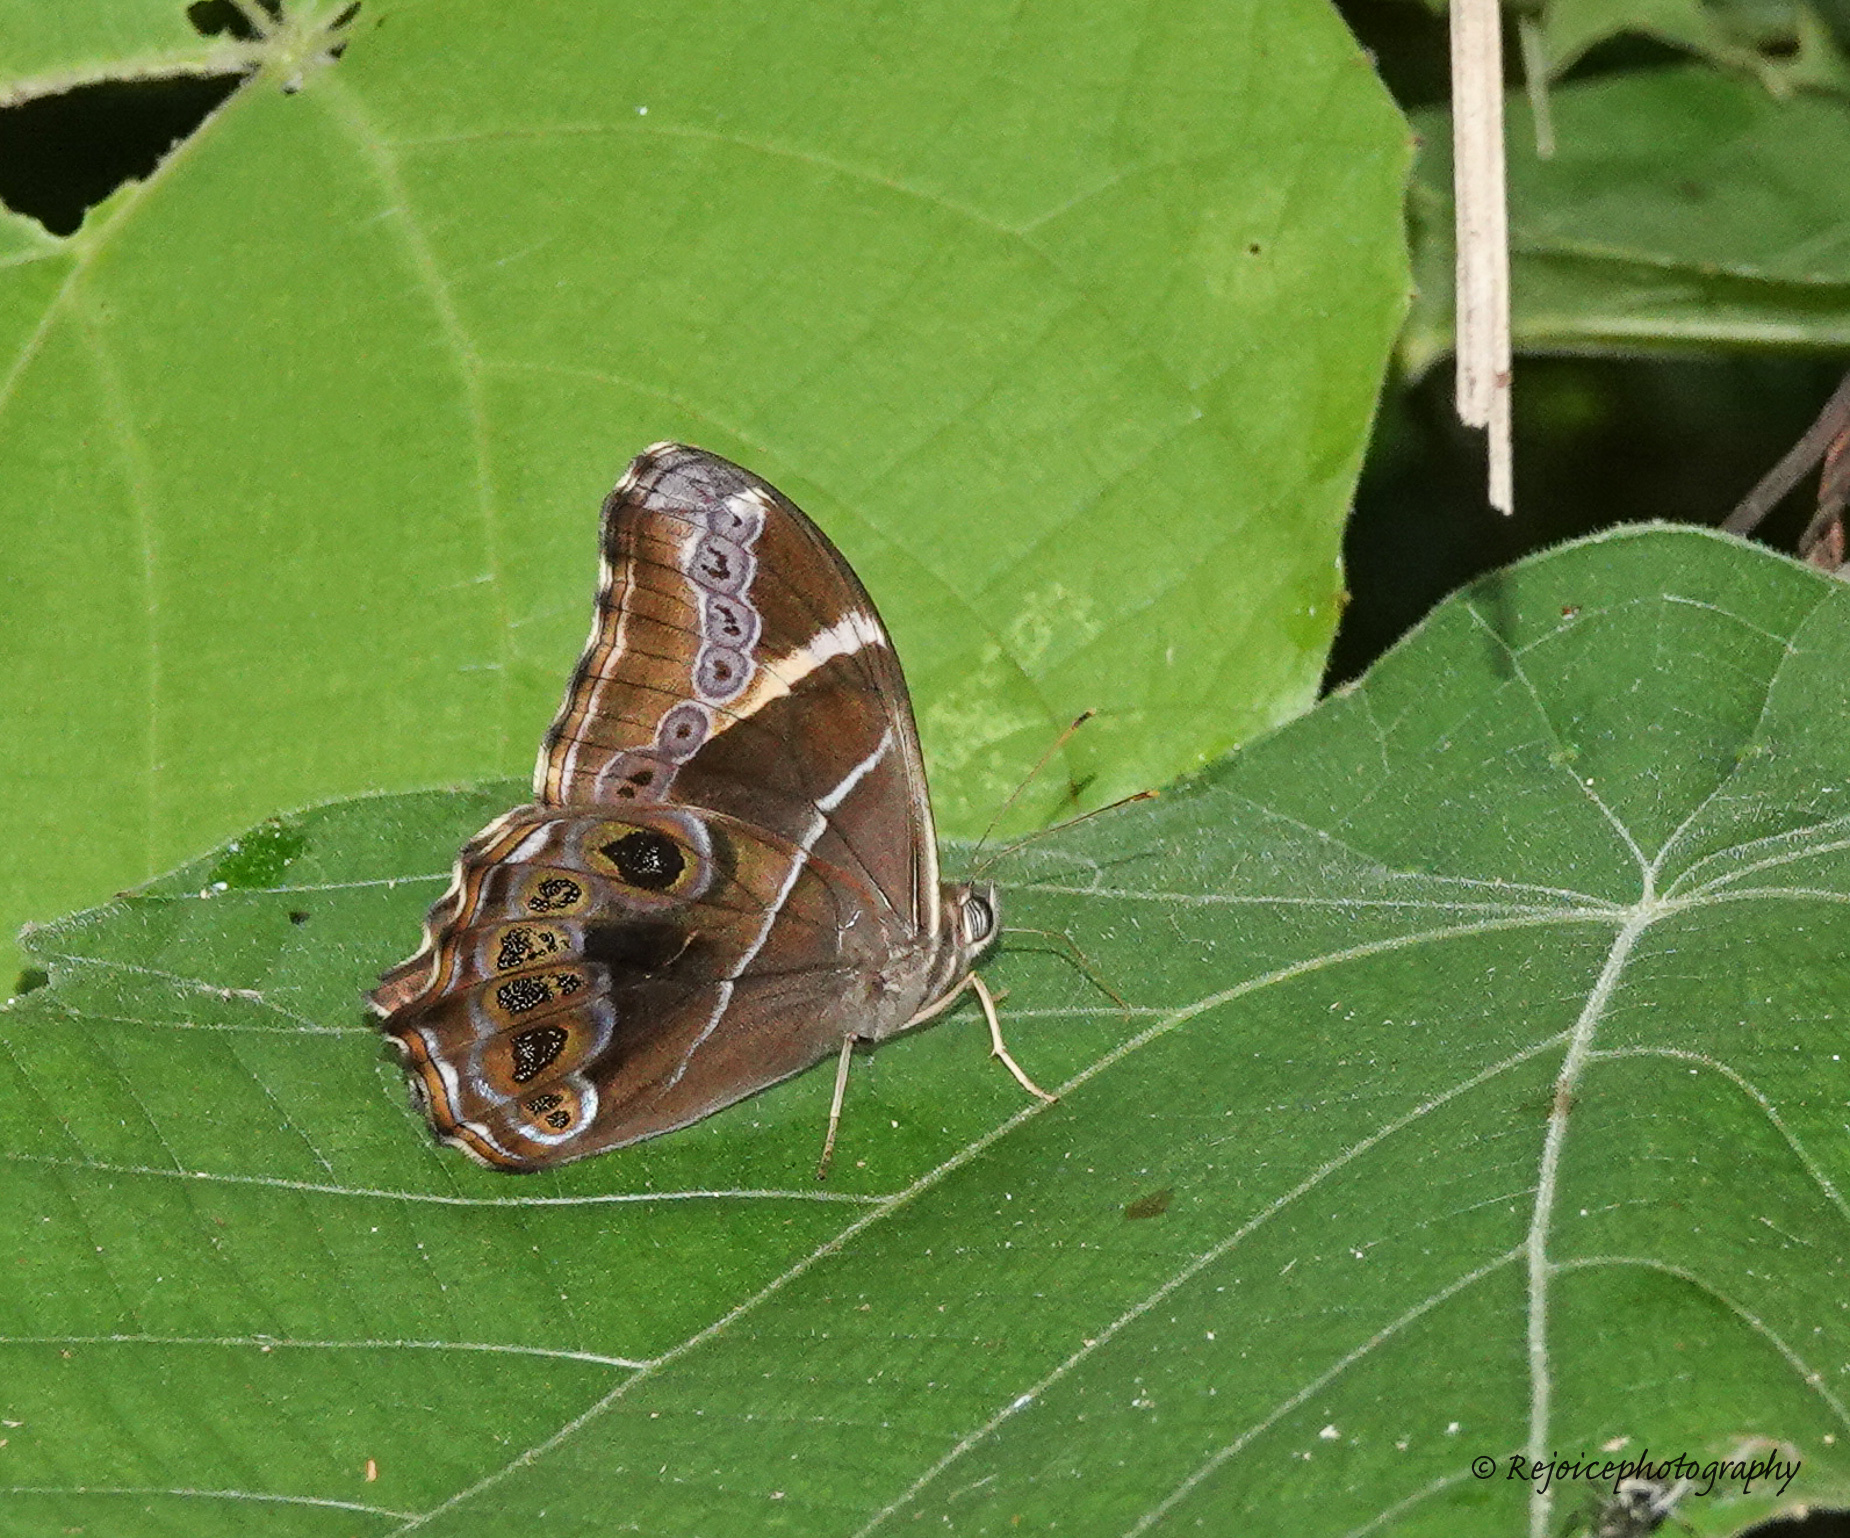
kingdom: Animalia
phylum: Arthropoda
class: Insecta
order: Lepidoptera
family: Nymphalidae
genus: Lethe
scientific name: Lethe europa
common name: Bamboo treebrown
